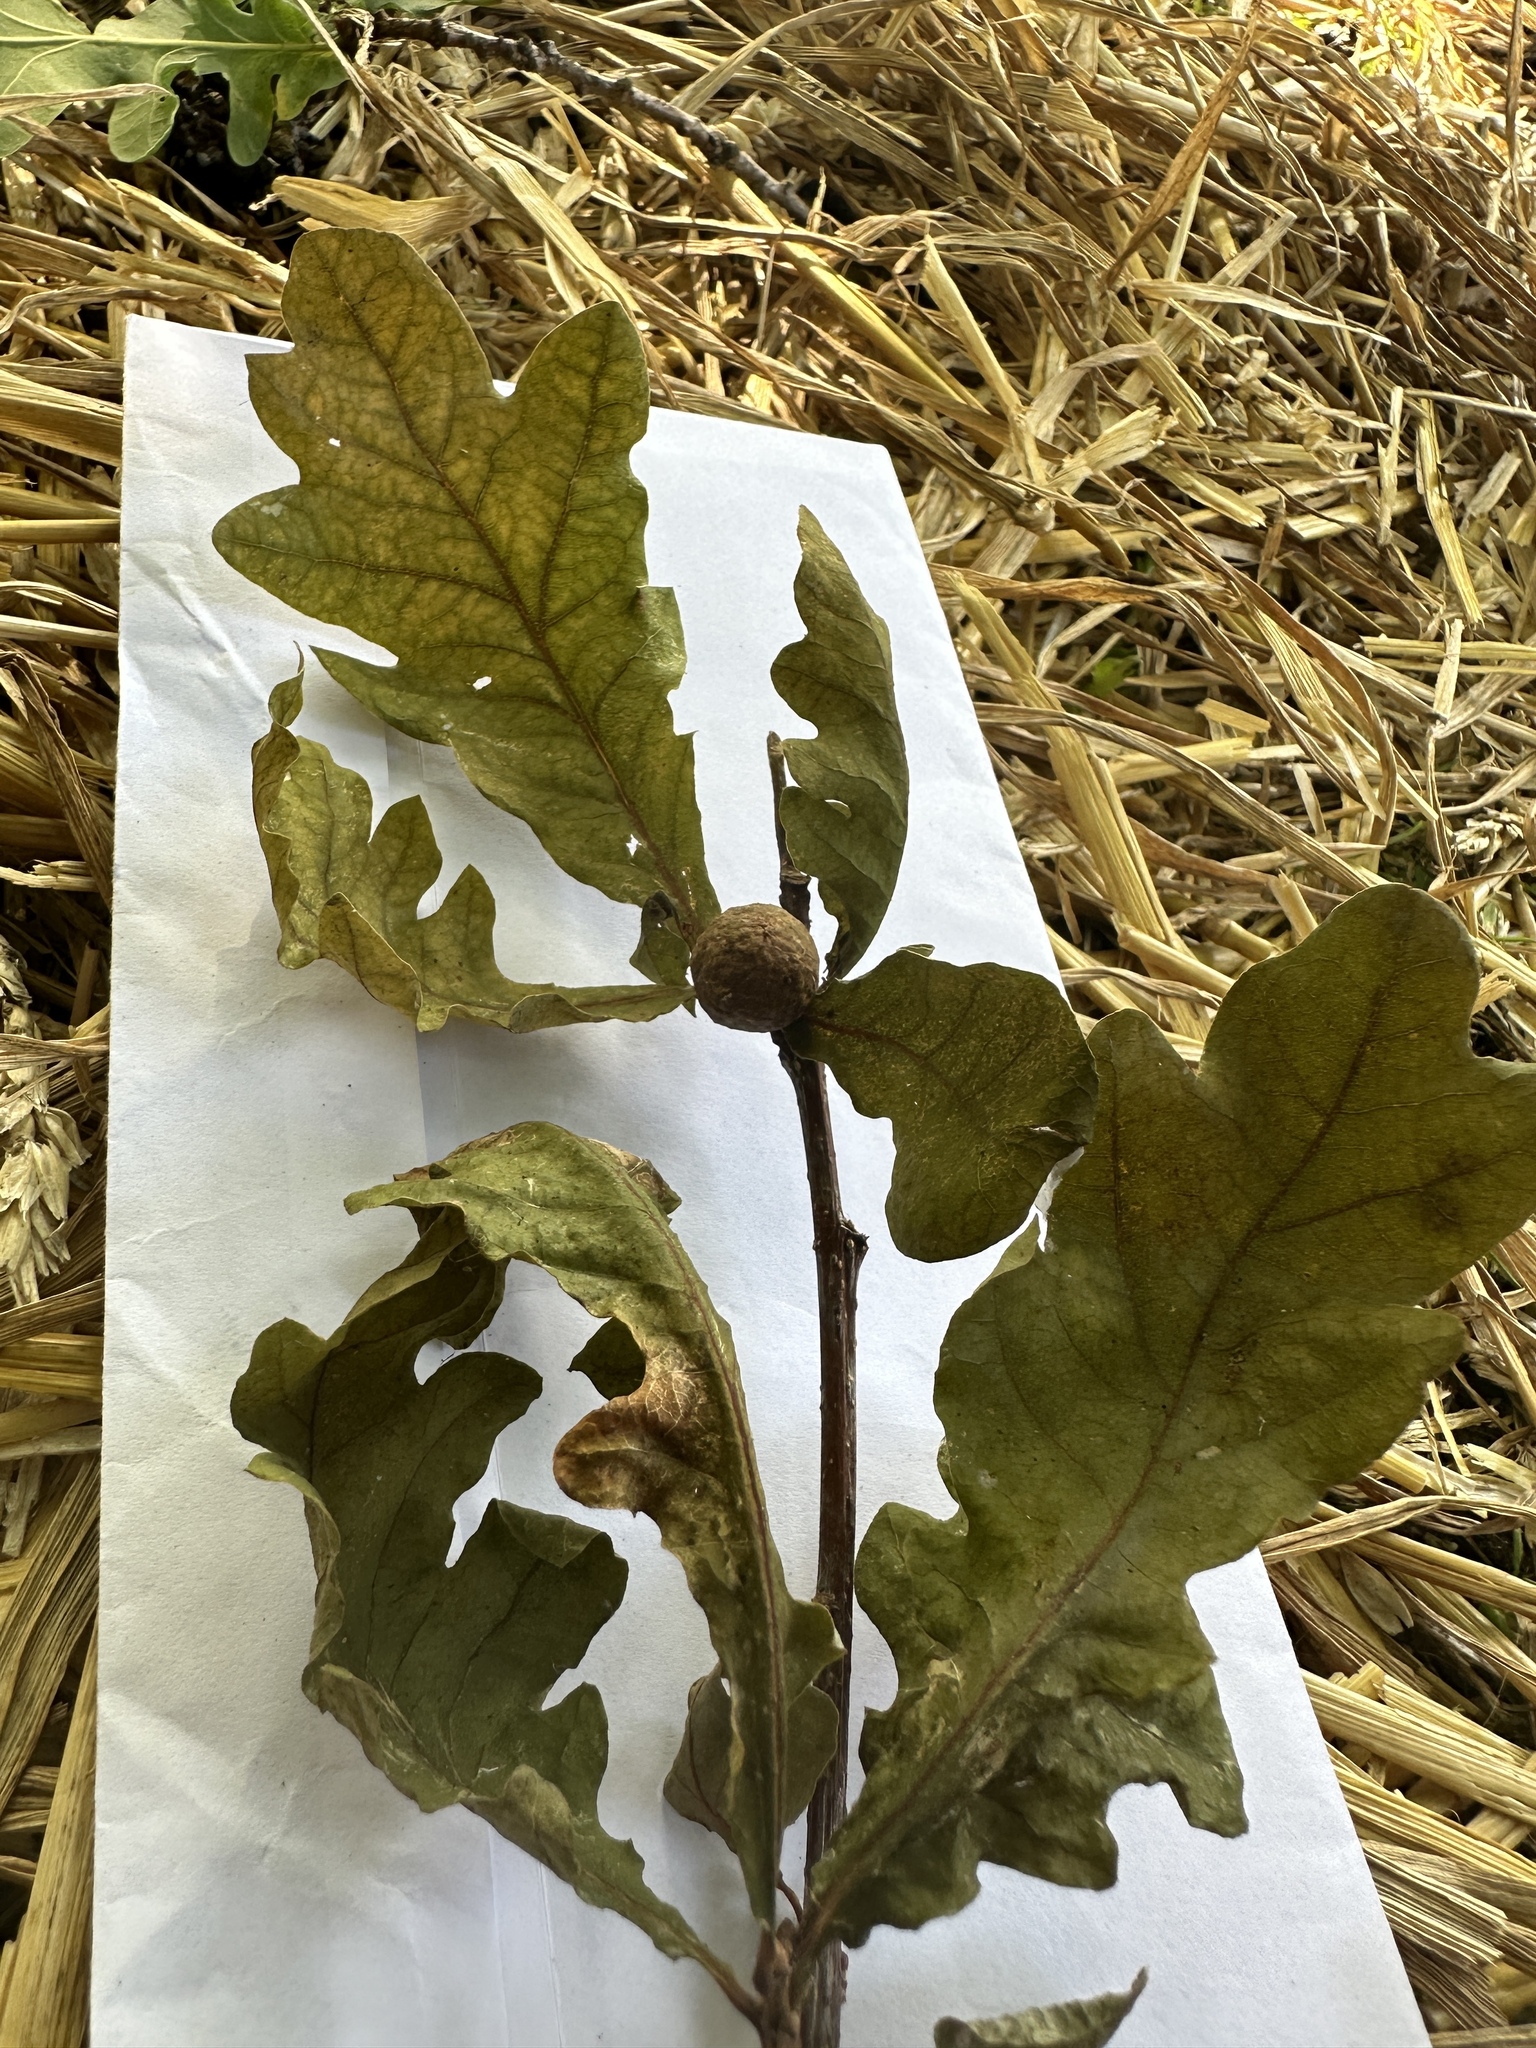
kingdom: Animalia
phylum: Arthropoda
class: Insecta
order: Hymenoptera
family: Cynipidae
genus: Andricus
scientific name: Andricus kollari
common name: Marble gall
